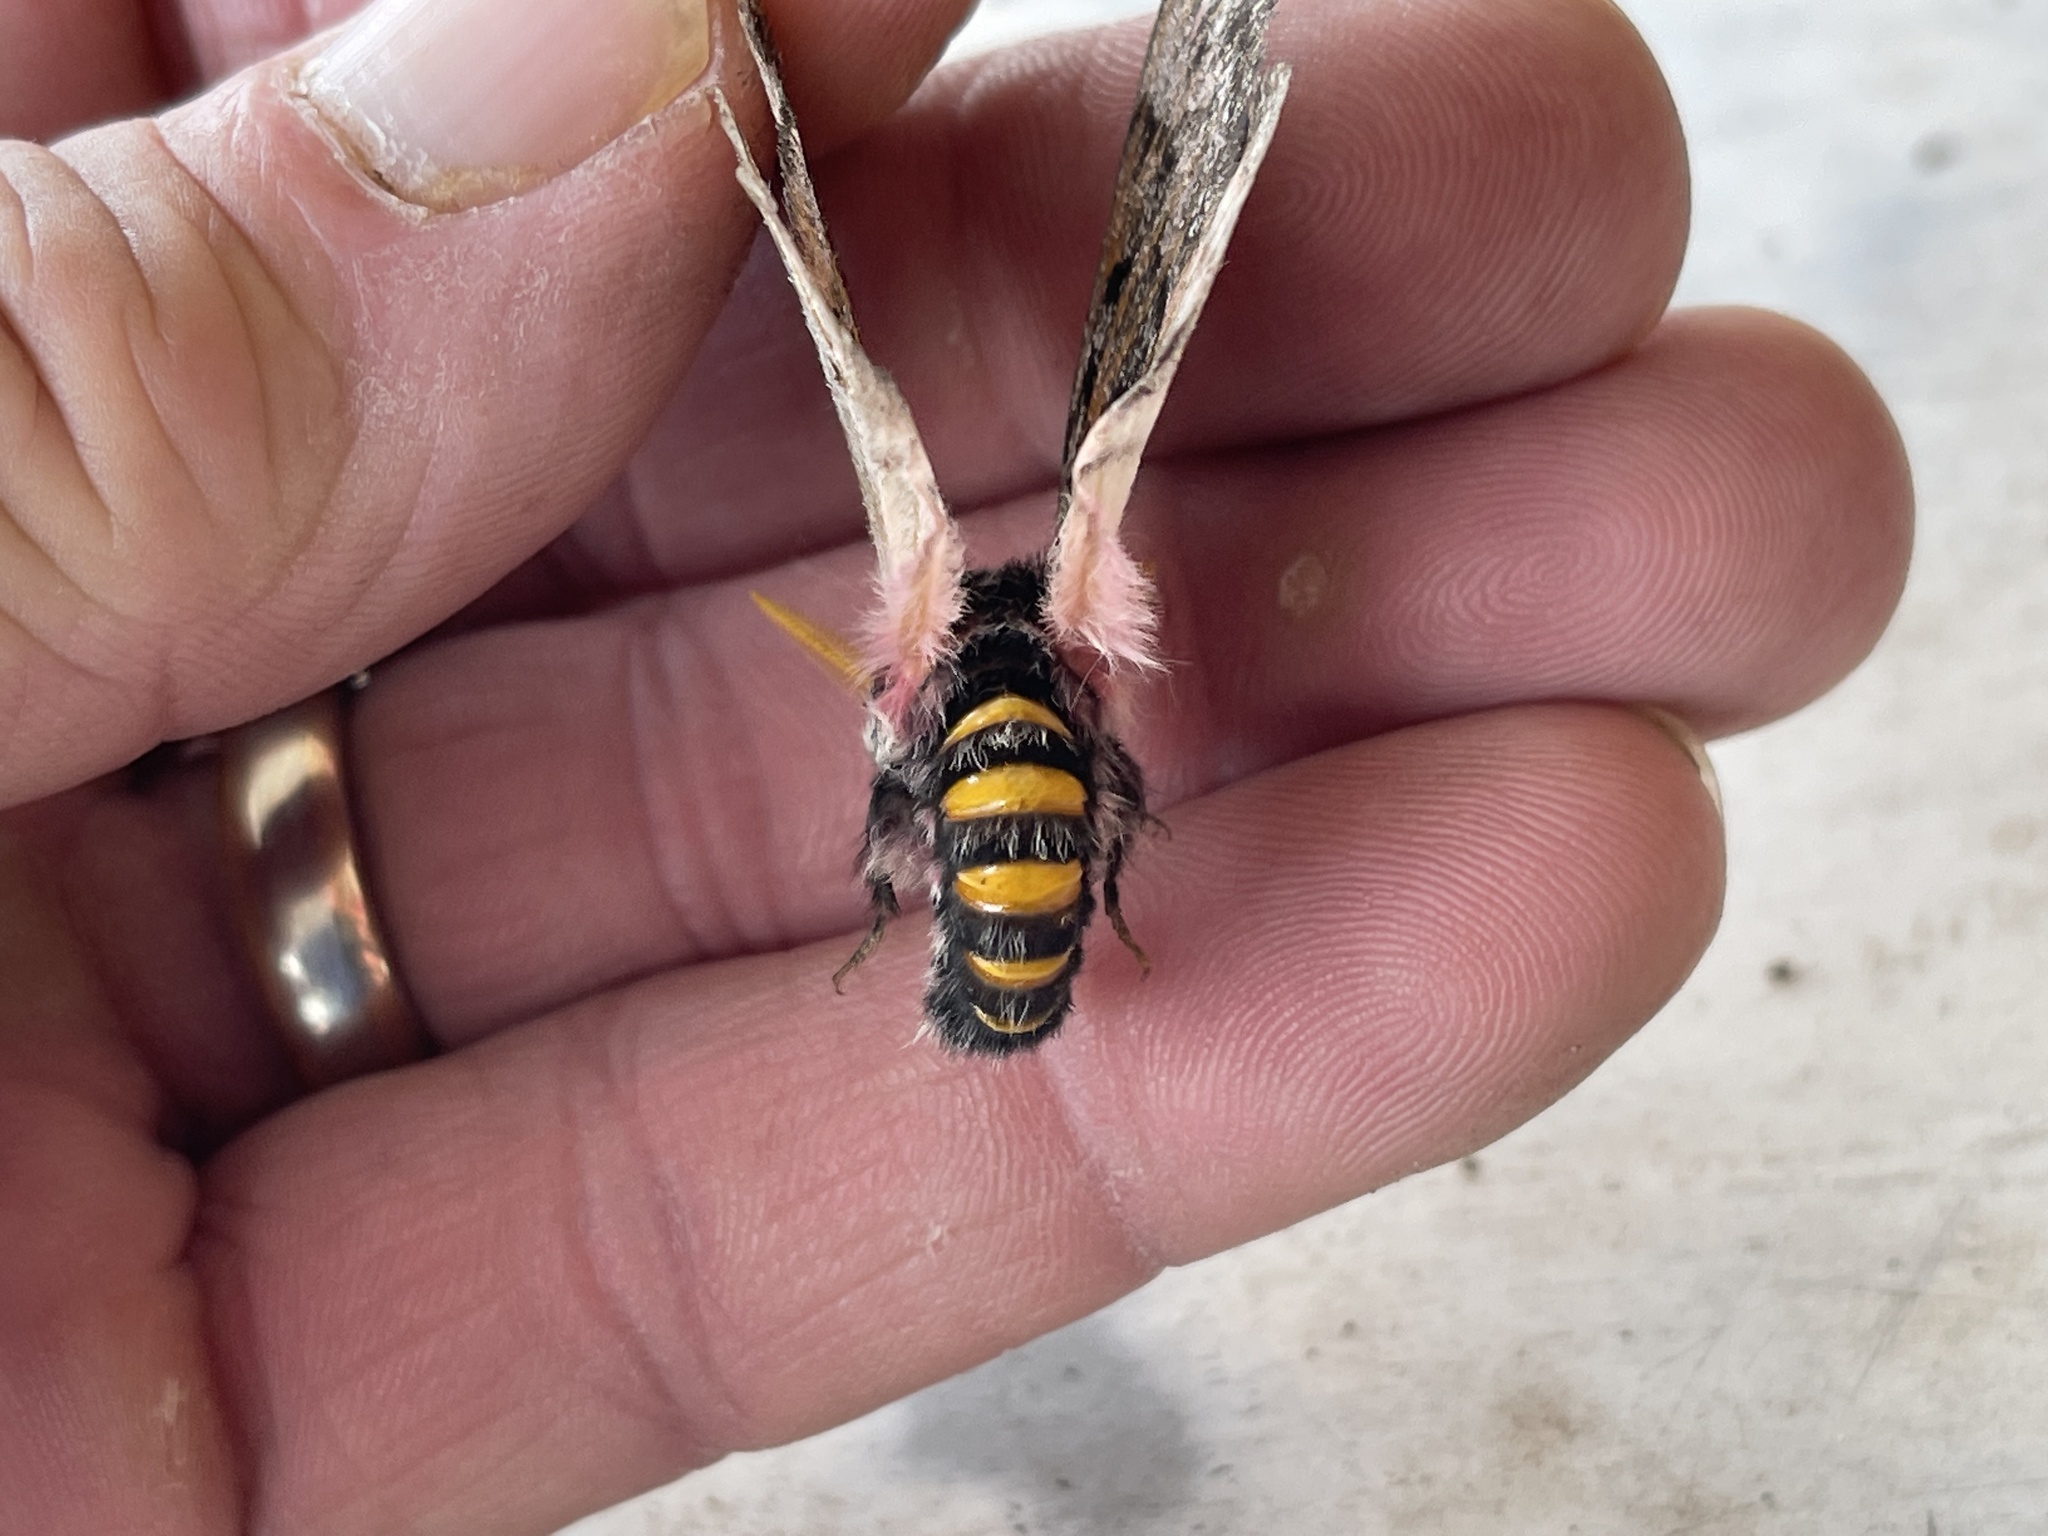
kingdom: Animalia
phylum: Arthropoda
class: Insecta
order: Lepidoptera
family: Saturniidae
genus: Coloradia
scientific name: Coloradia pandora
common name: Pandora pinemoth
